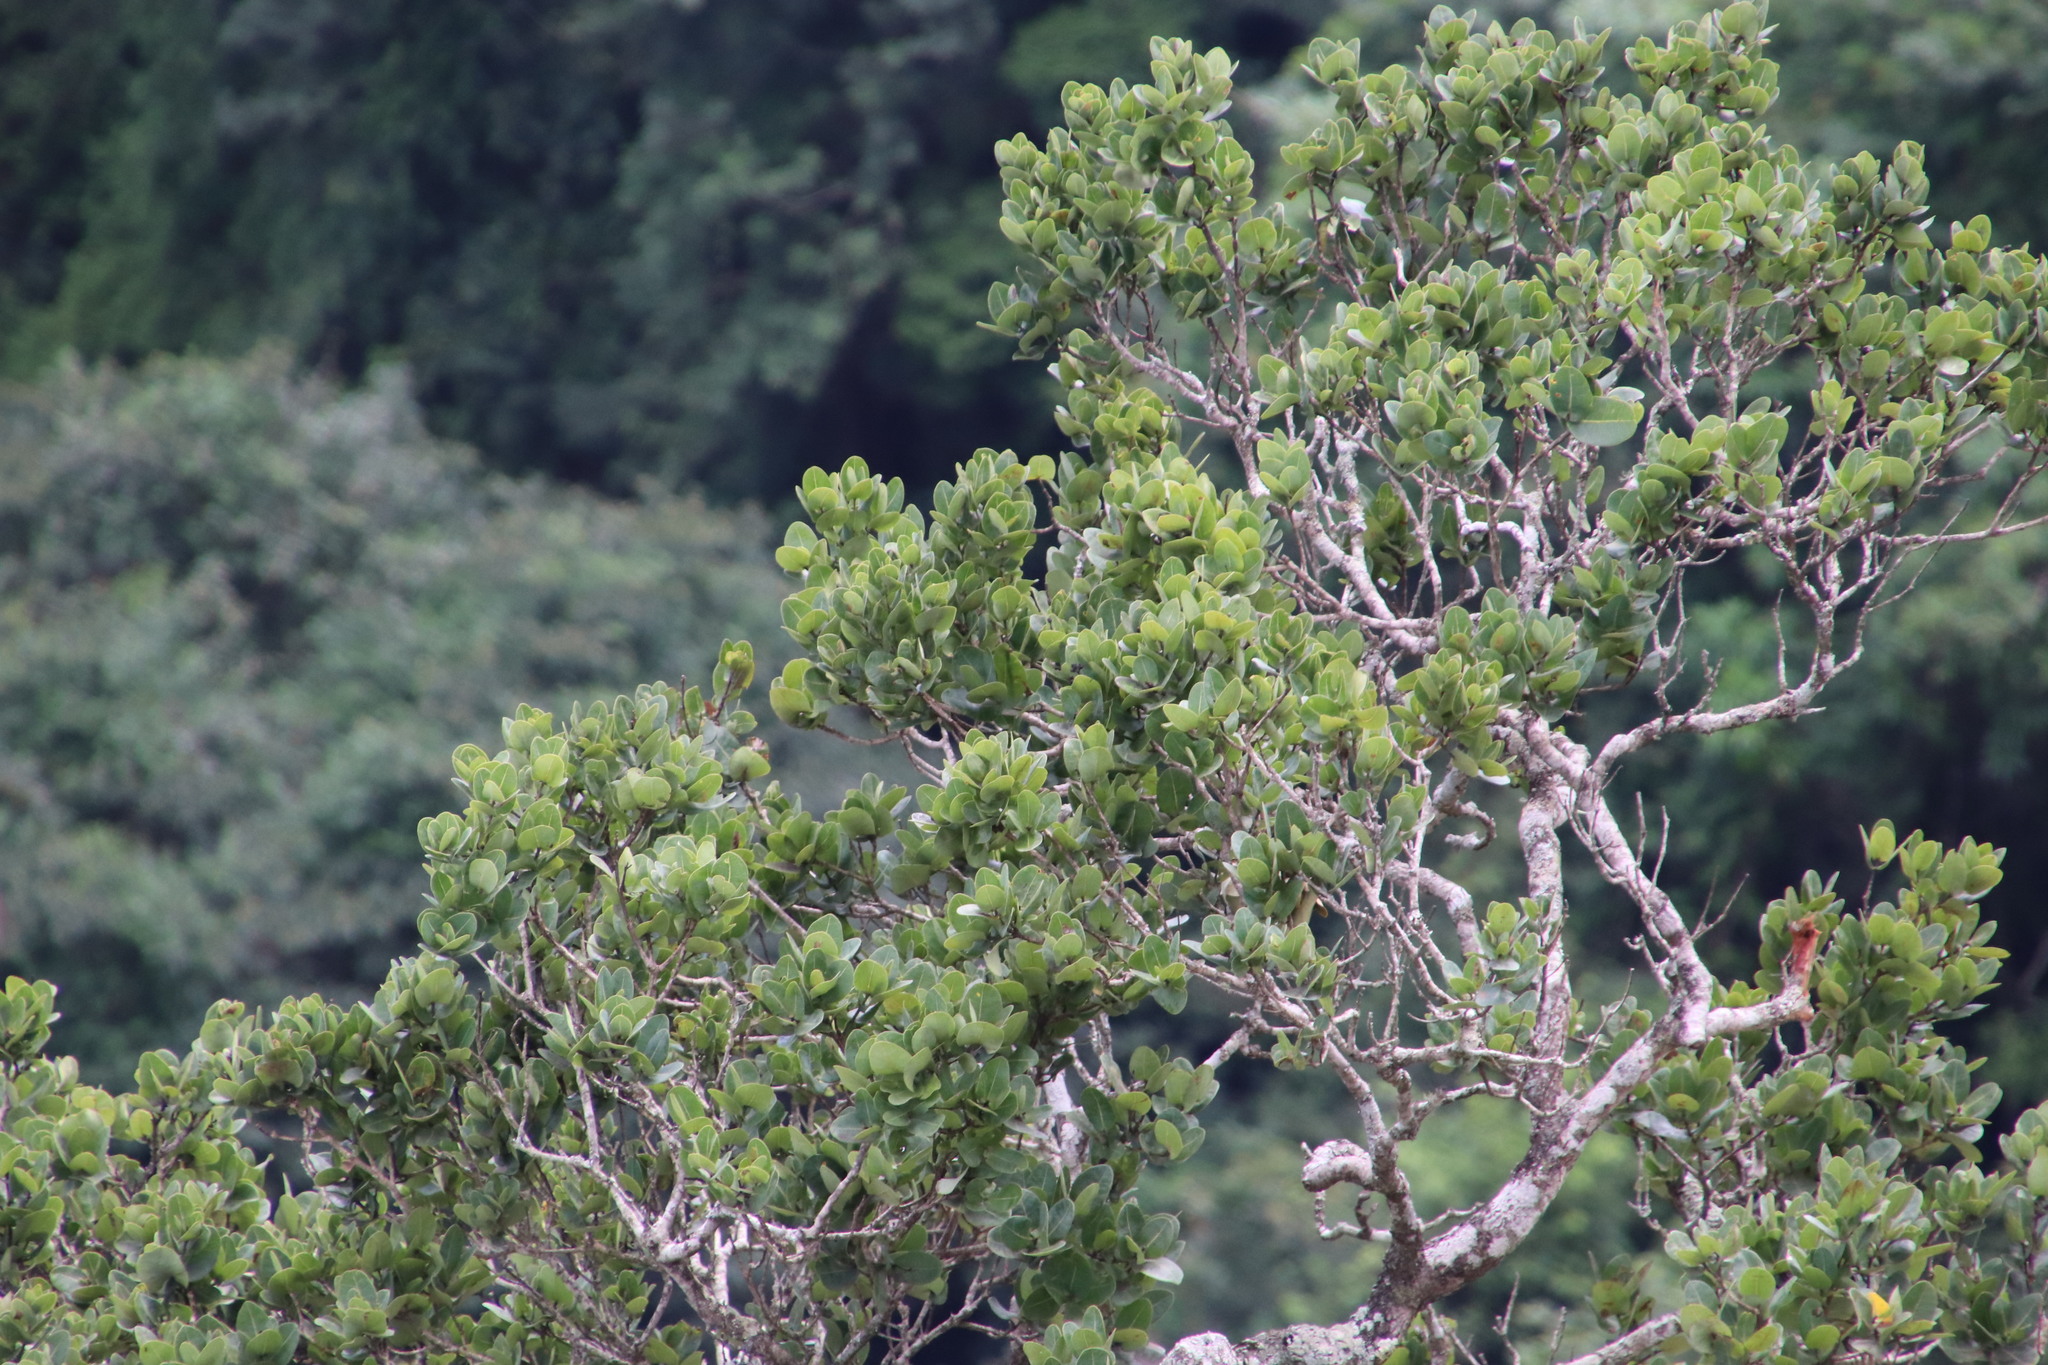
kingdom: Plantae
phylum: Tracheophyta
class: Magnoliopsida
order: Myrtales
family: Myrtaceae
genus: Syzygium
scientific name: Syzygium cordatum
